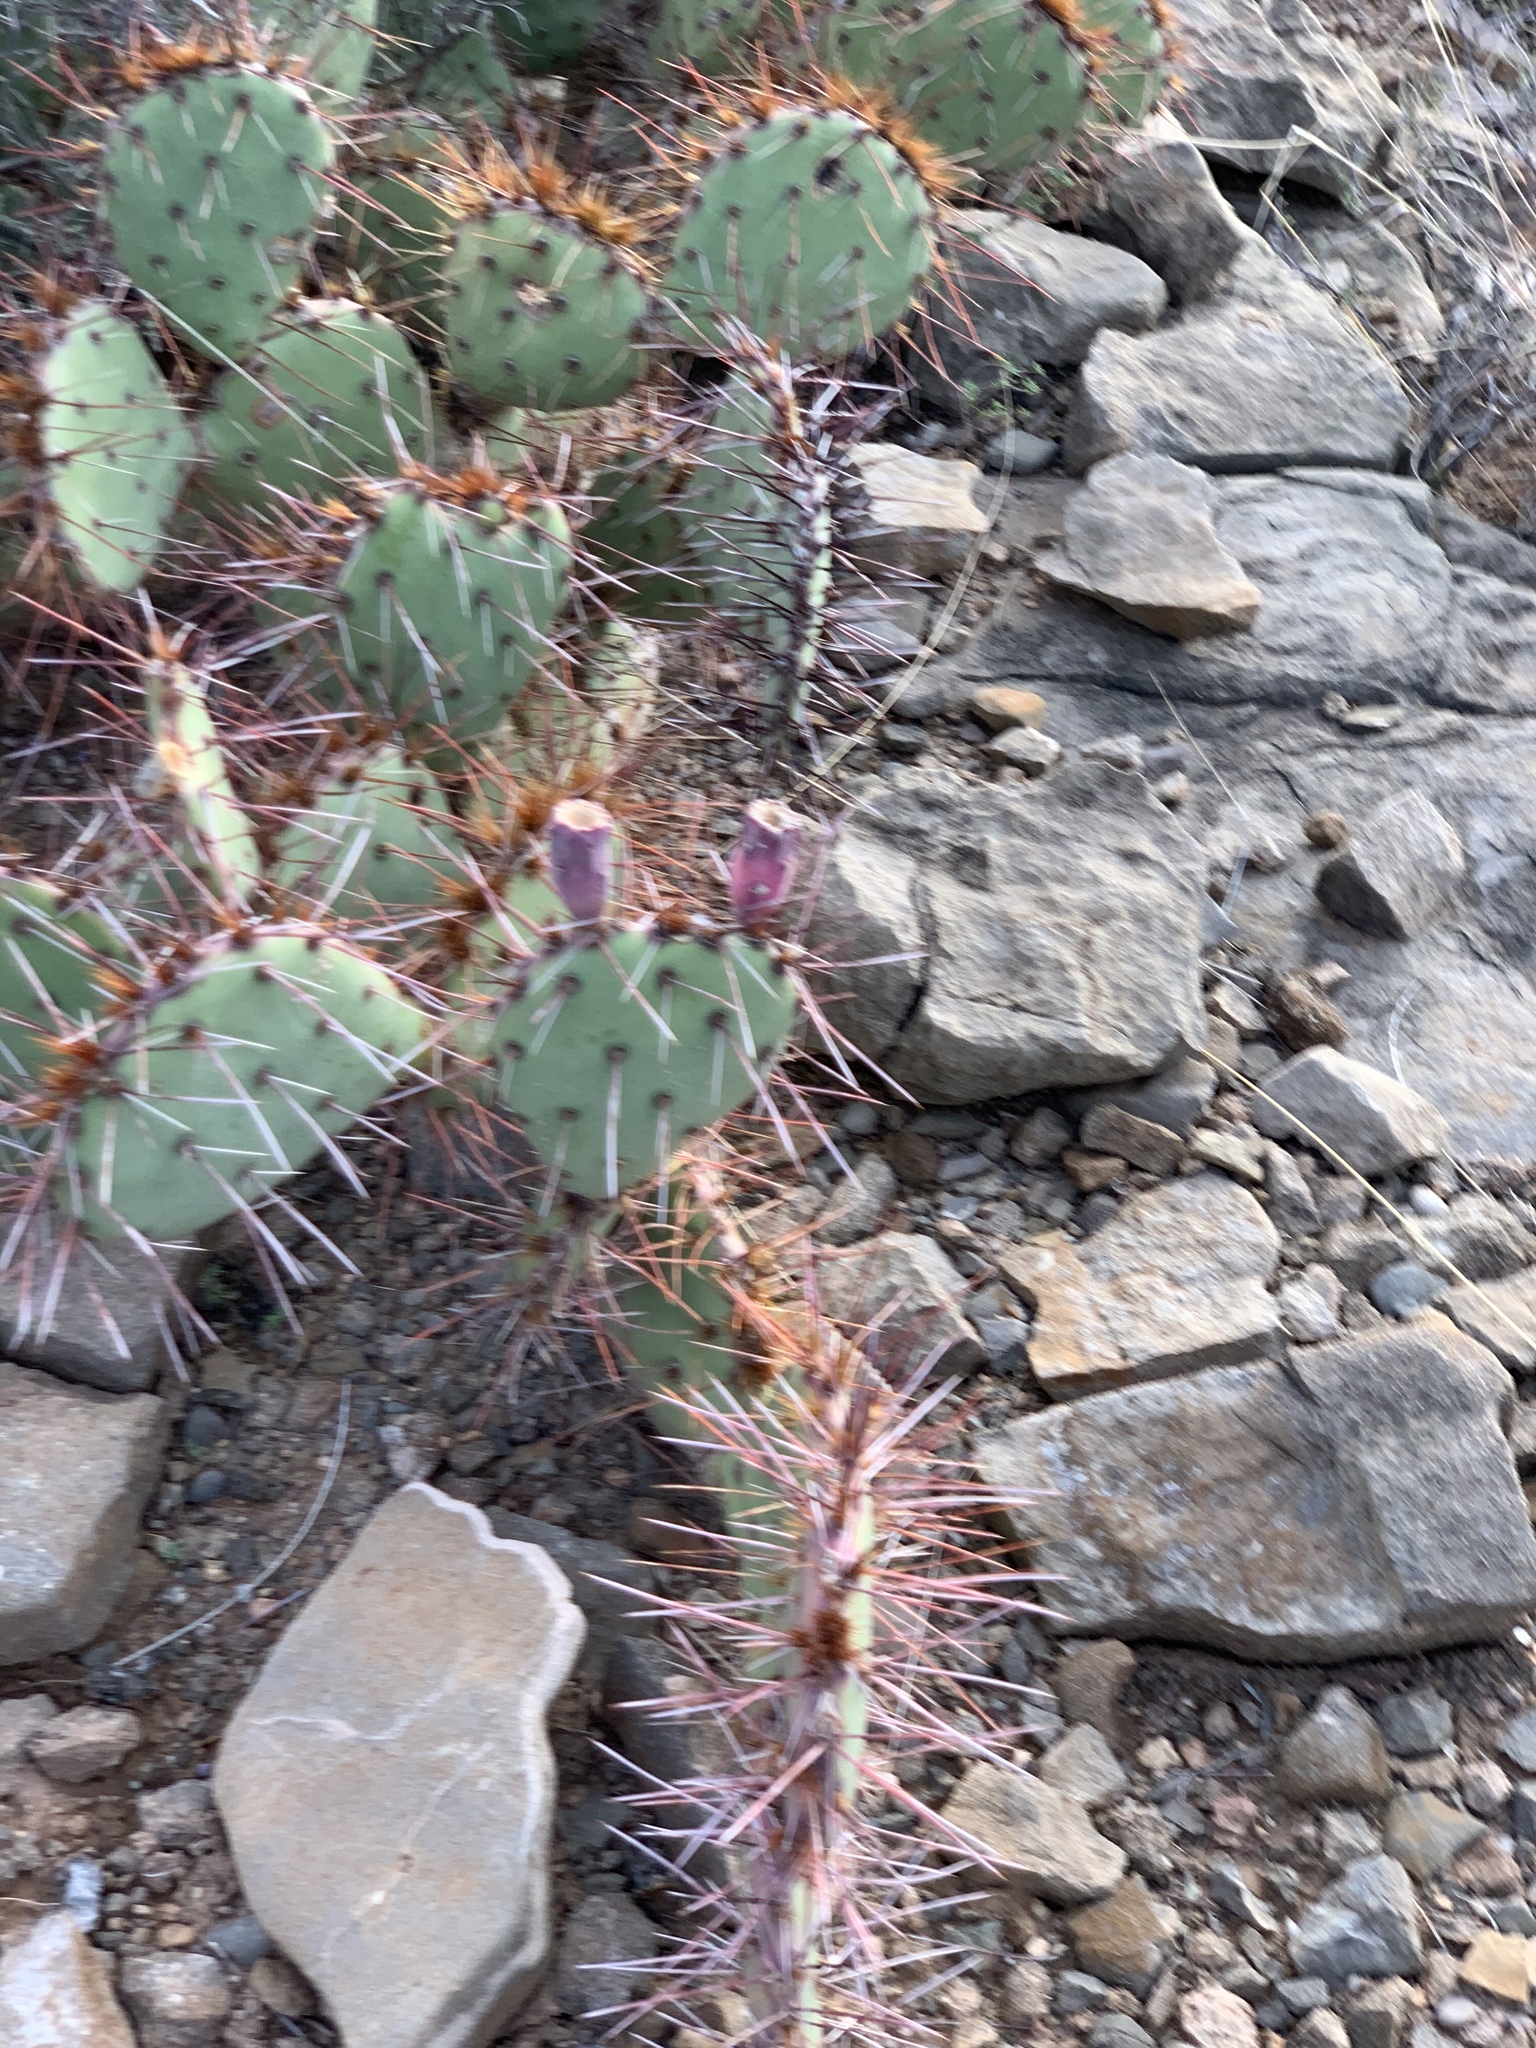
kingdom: Plantae
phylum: Tracheophyta
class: Magnoliopsida
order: Caryophyllales
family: Cactaceae
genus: Opuntia
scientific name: Opuntia macrocentra
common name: Purple prickly-pear
